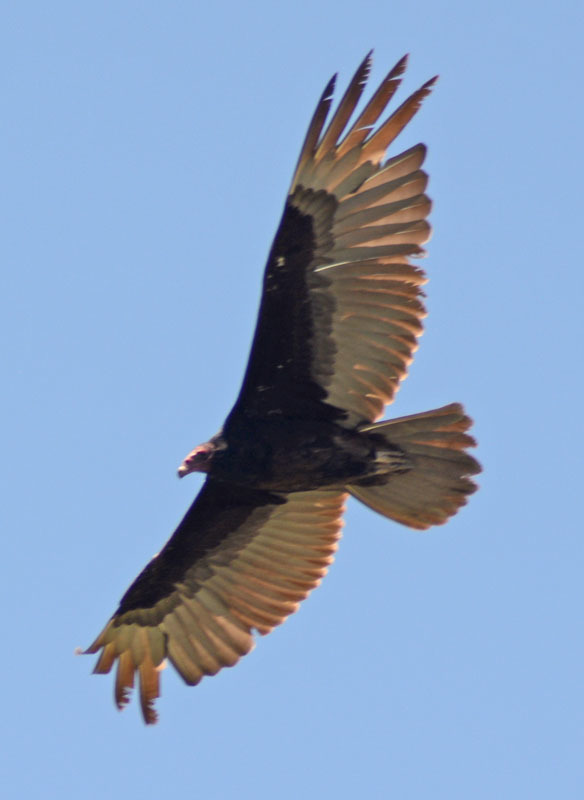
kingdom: Animalia
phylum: Chordata
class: Aves
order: Accipitriformes
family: Cathartidae
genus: Cathartes
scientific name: Cathartes aura
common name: Turkey vulture
